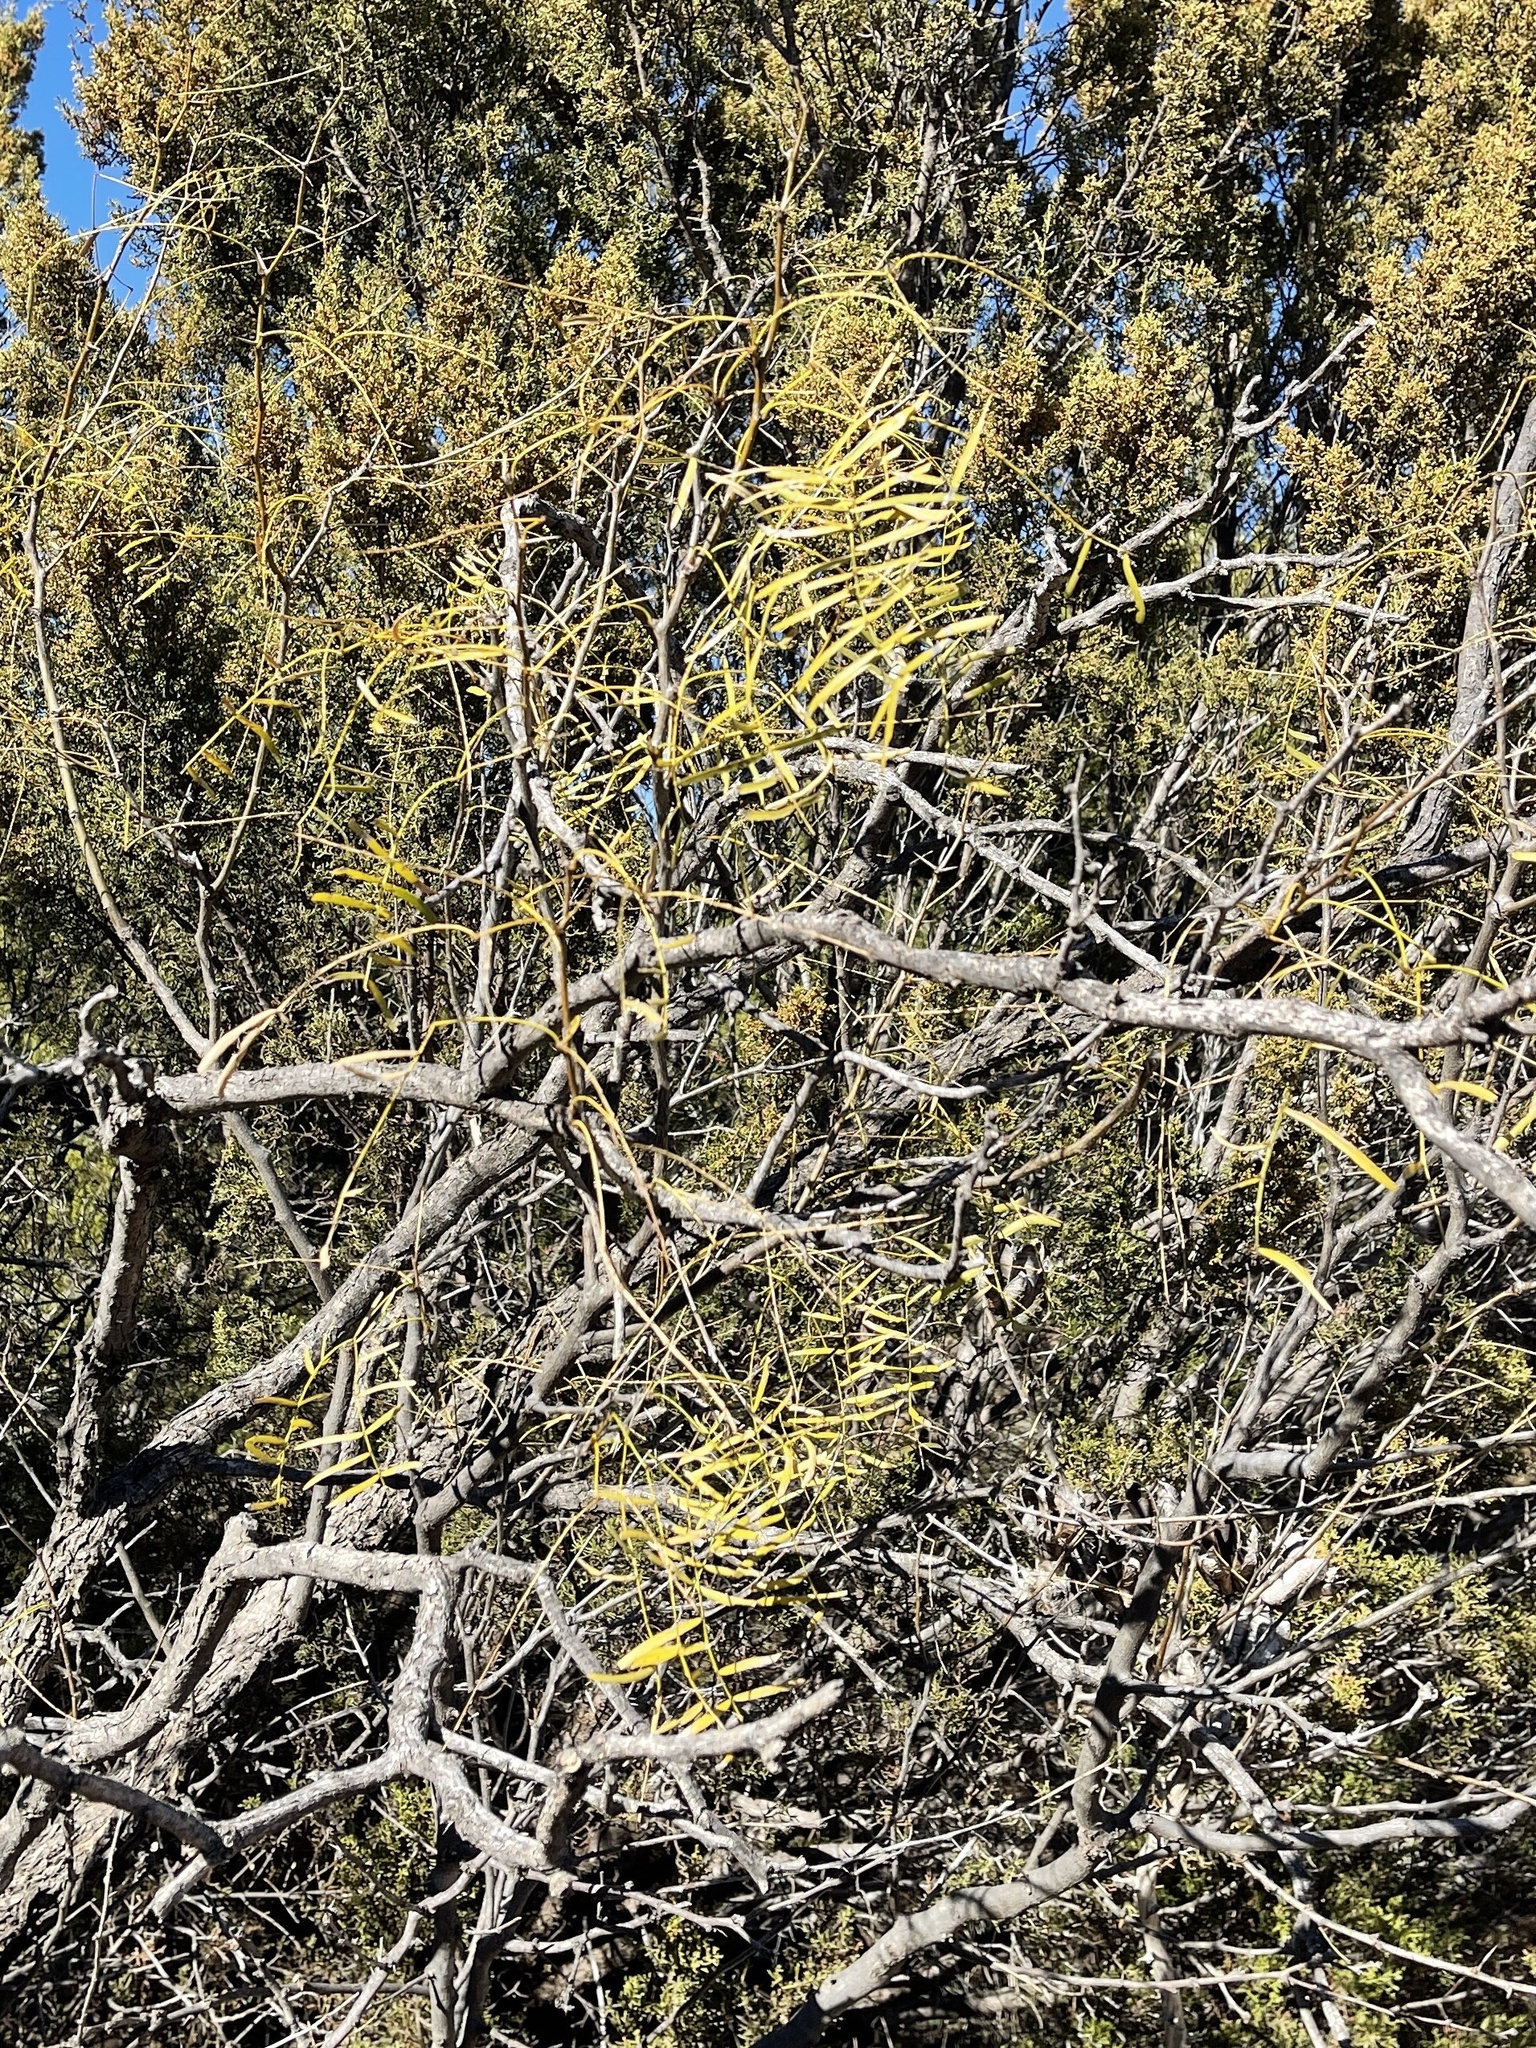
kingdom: Plantae
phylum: Tracheophyta
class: Magnoliopsida
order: Fabales
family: Fabaceae
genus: Prosopis
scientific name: Prosopis glandulosa
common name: Honey mesquite
